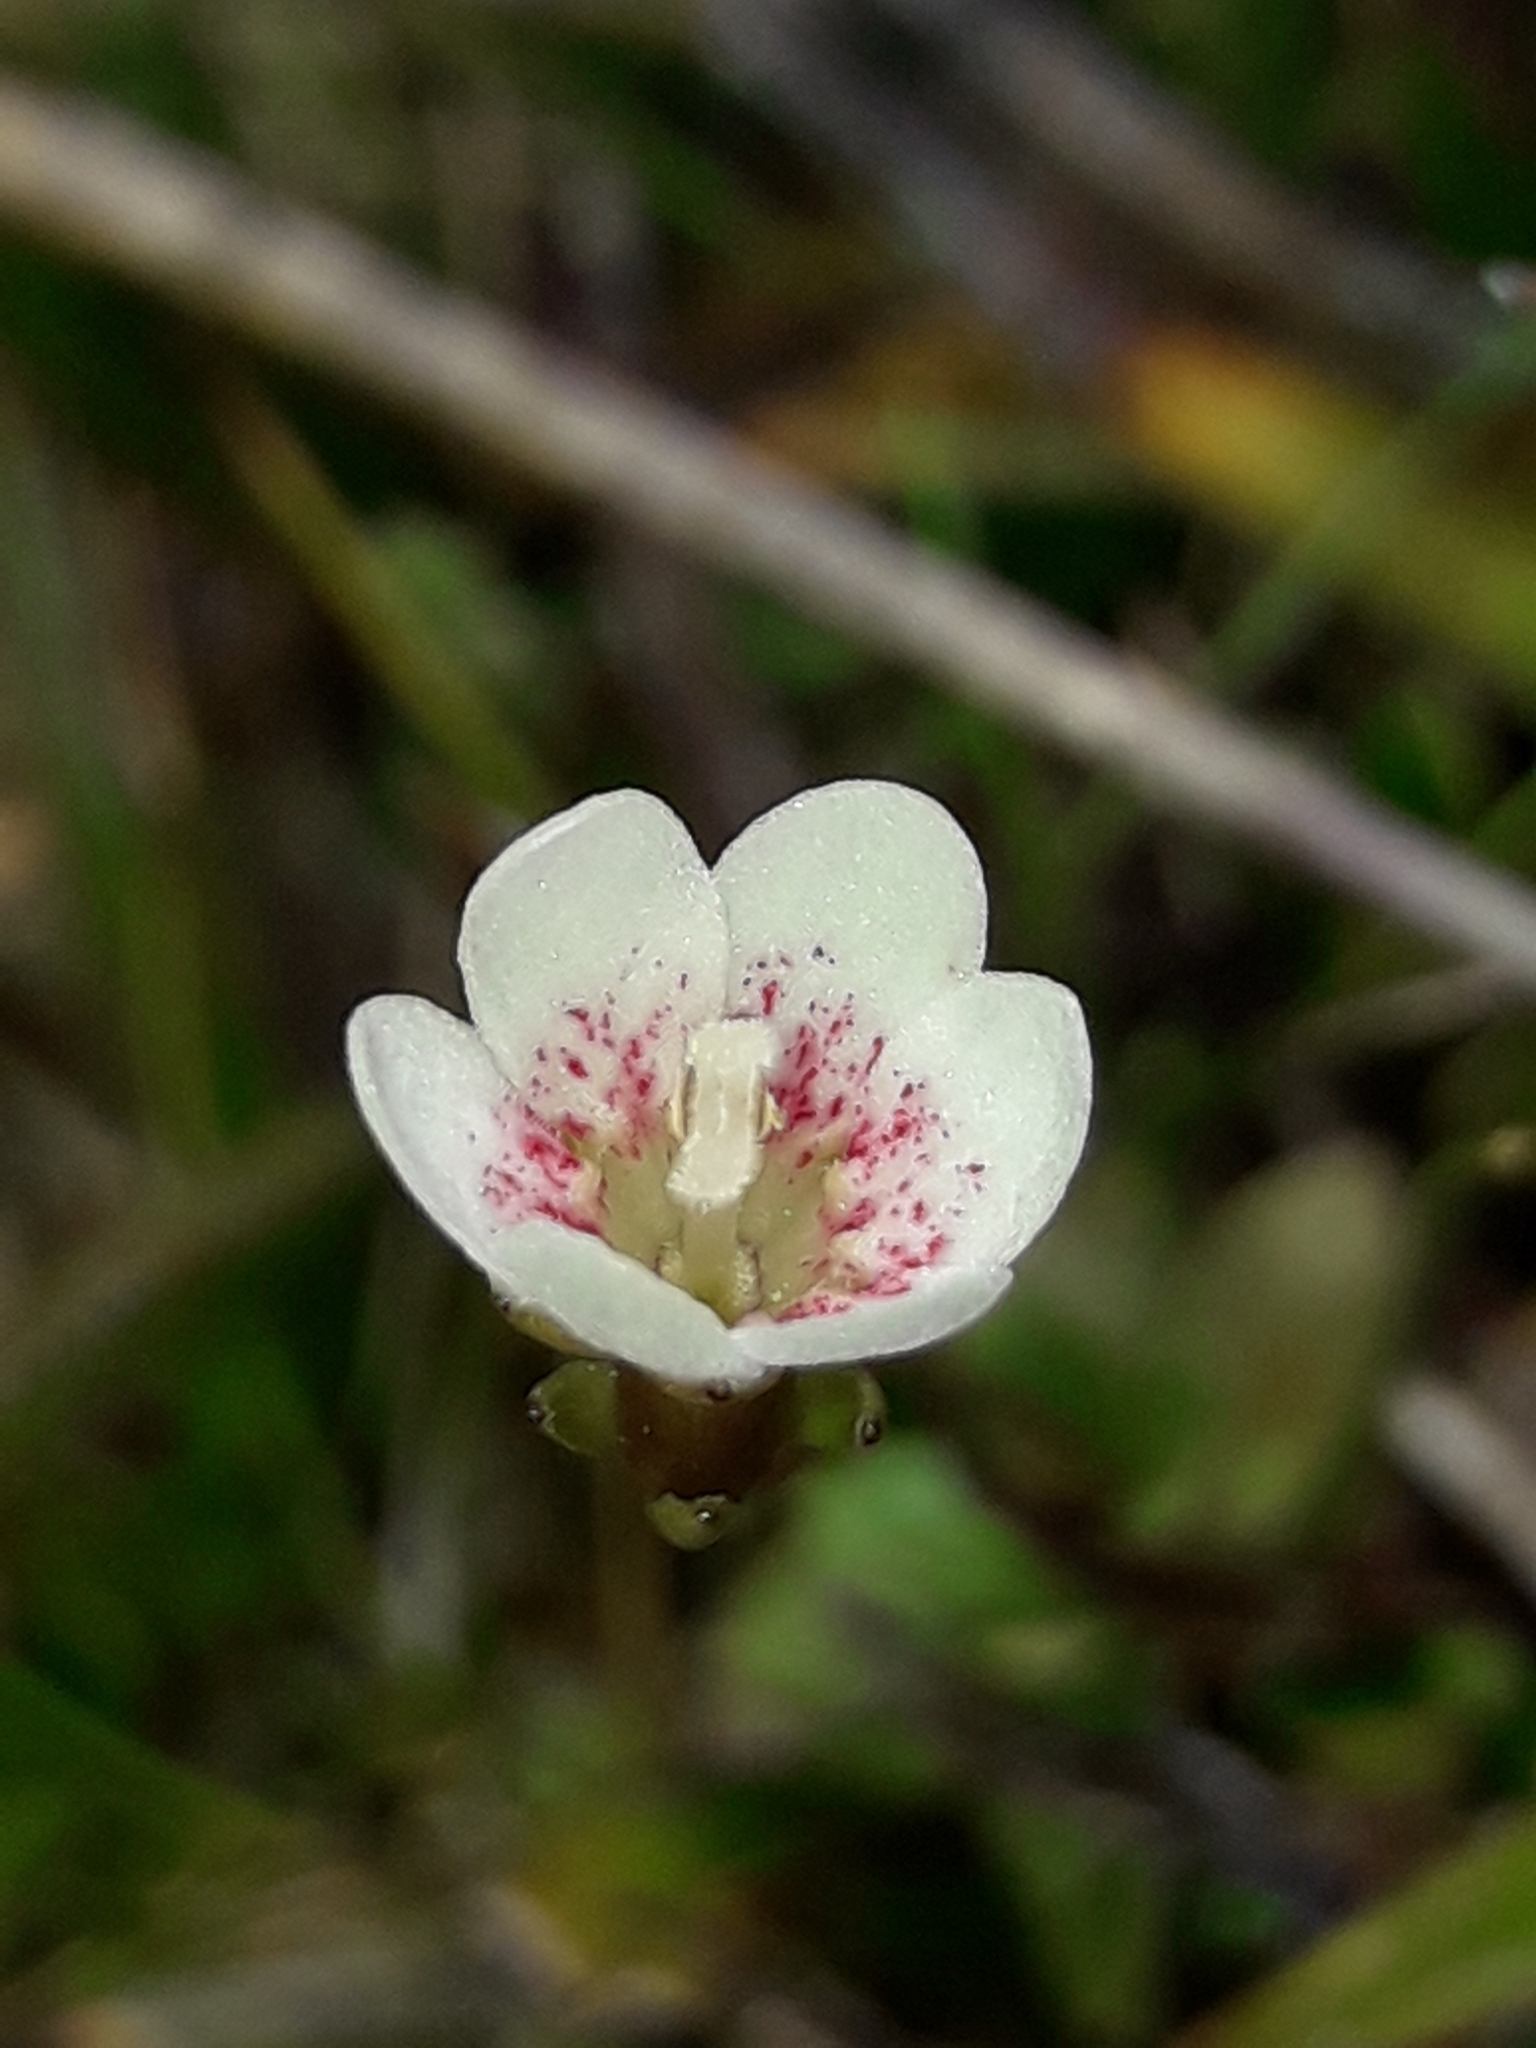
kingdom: Plantae
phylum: Tracheophyta
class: Magnoliopsida
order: Asterales
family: Stylidiaceae
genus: Forstera
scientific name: Forstera tenella
